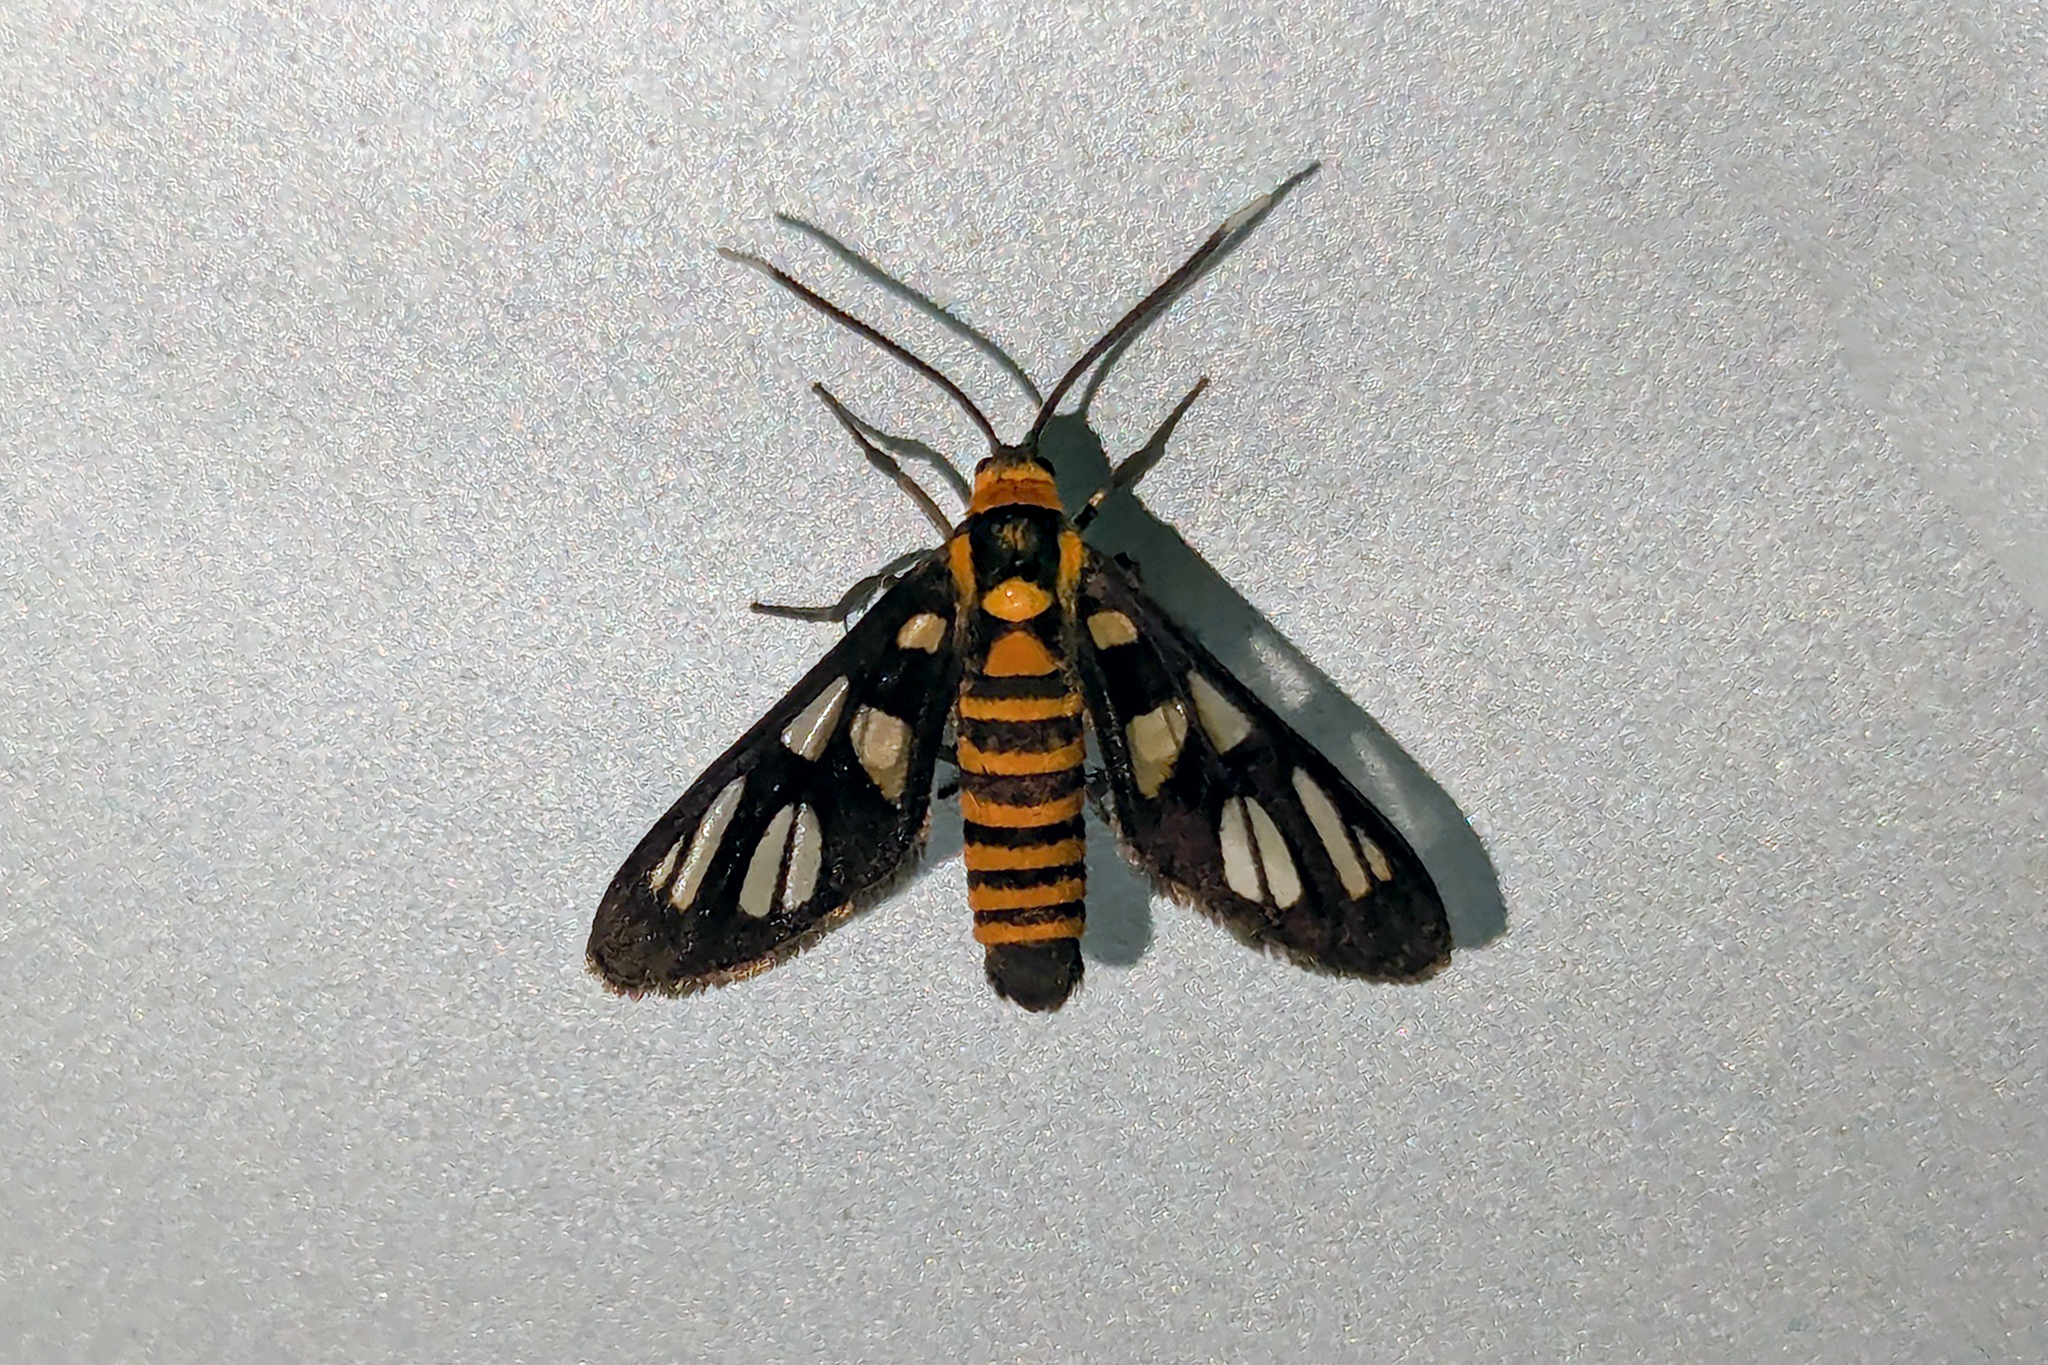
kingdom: Animalia
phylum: Arthropoda
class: Insecta
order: Lepidoptera
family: Erebidae
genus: Amata
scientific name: Amata huebneri
